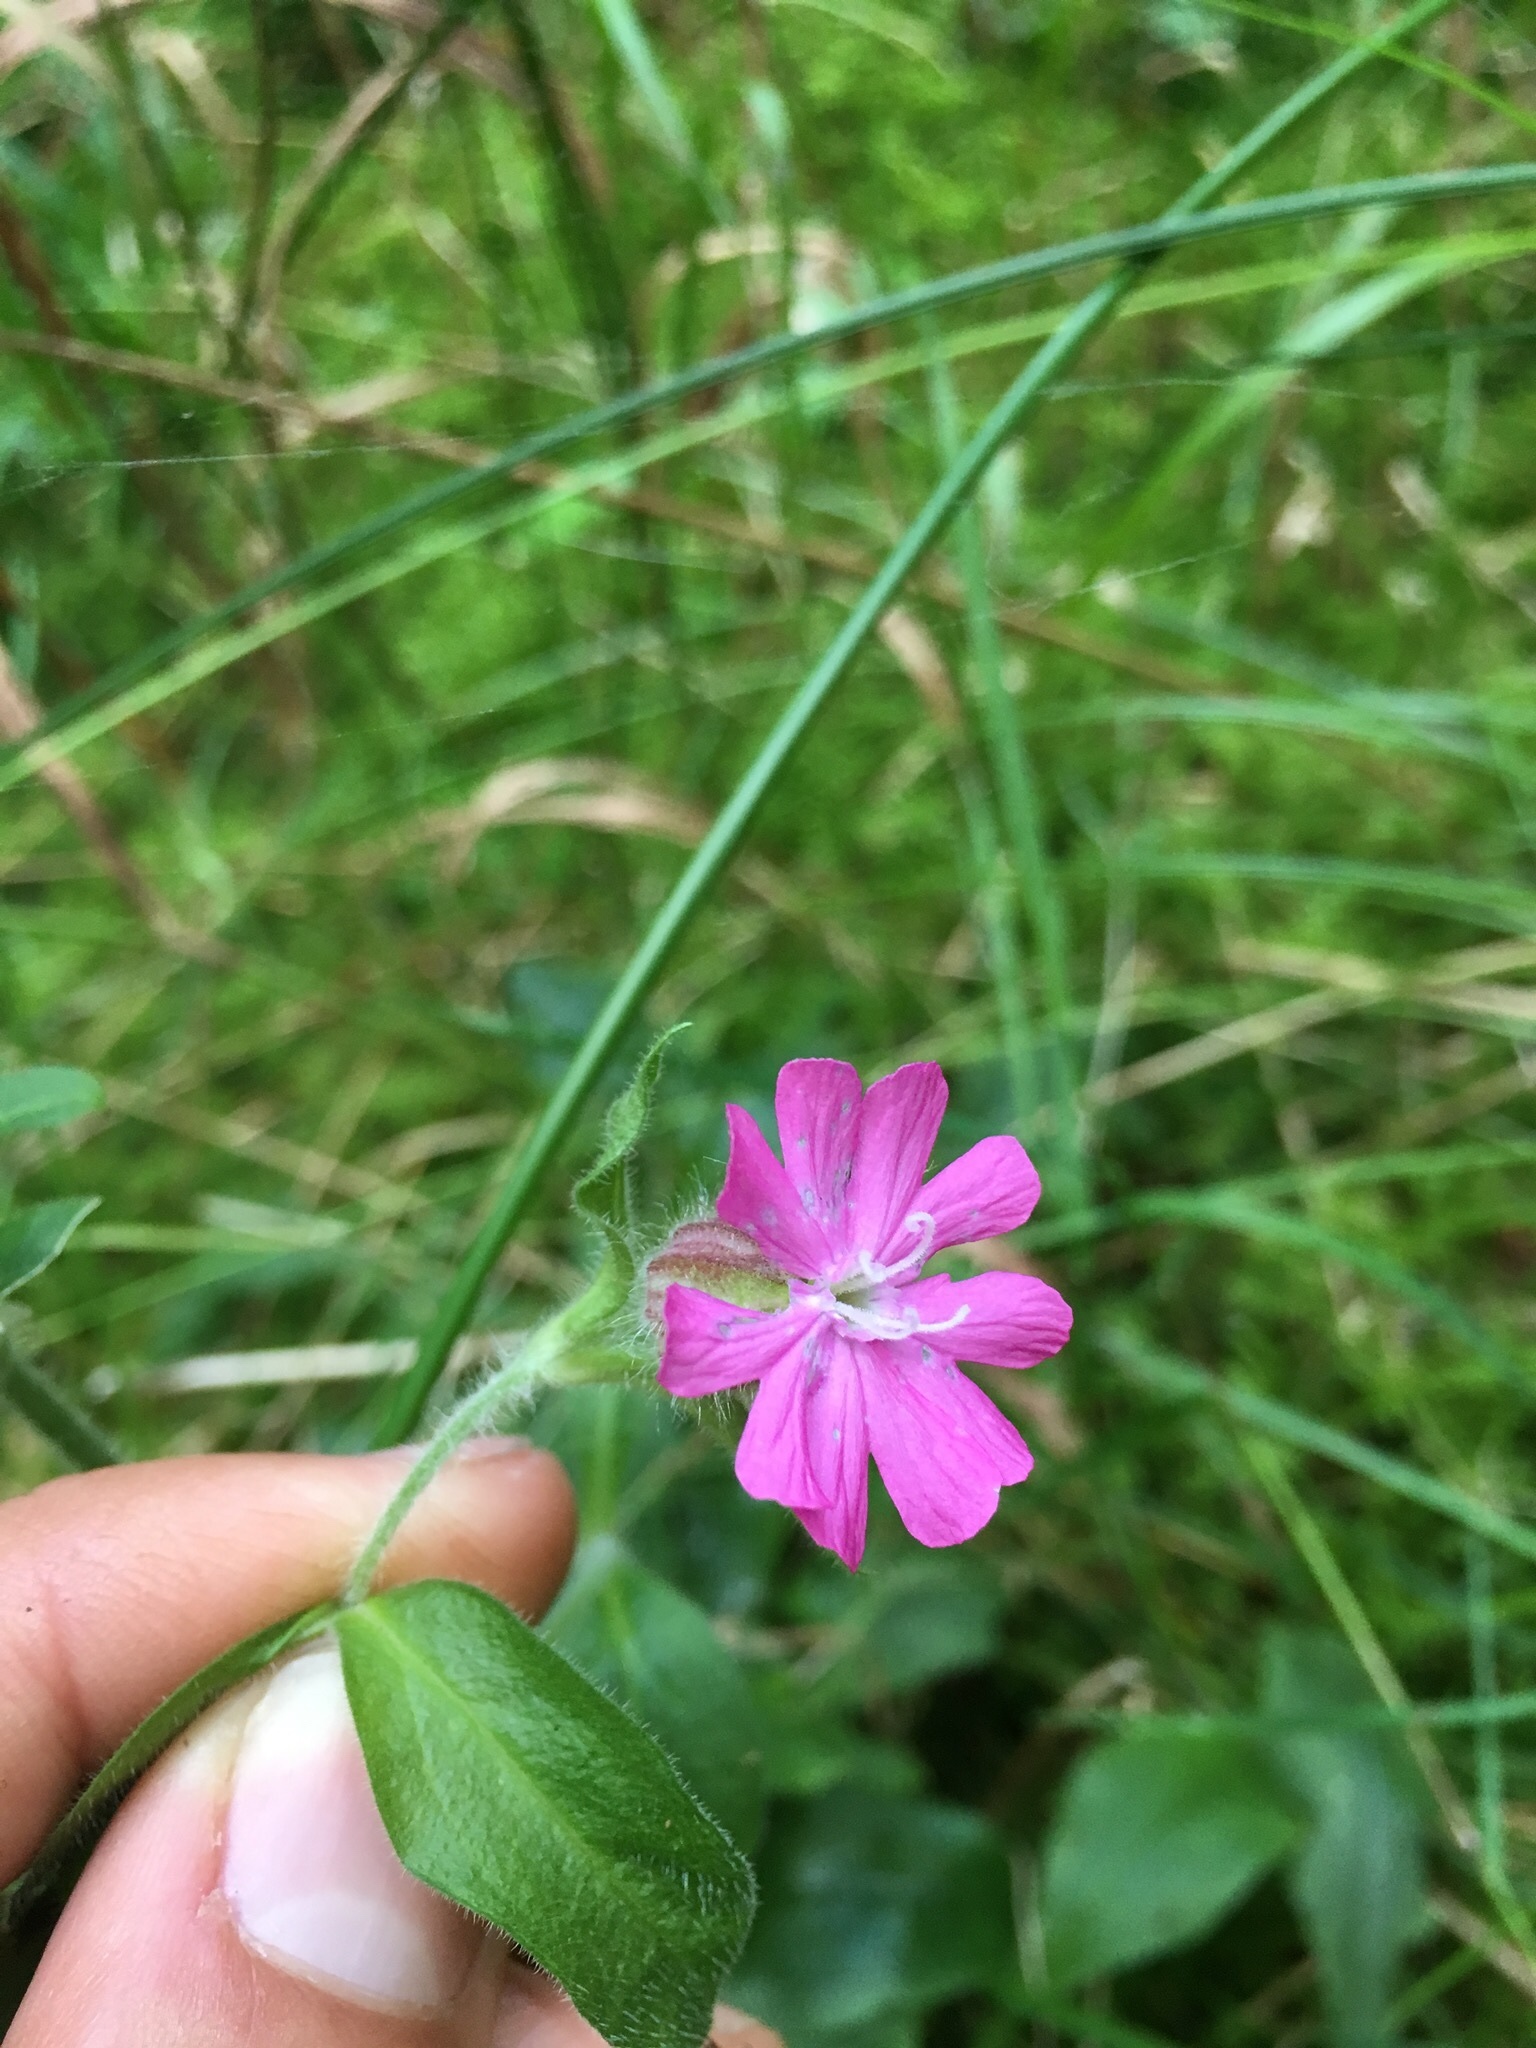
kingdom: Plantae
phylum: Tracheophyta
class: Magnoliopsida
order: Caryophyllales
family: Caryophyllaceae
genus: Silene
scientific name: Silene dioica
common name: Red campion
